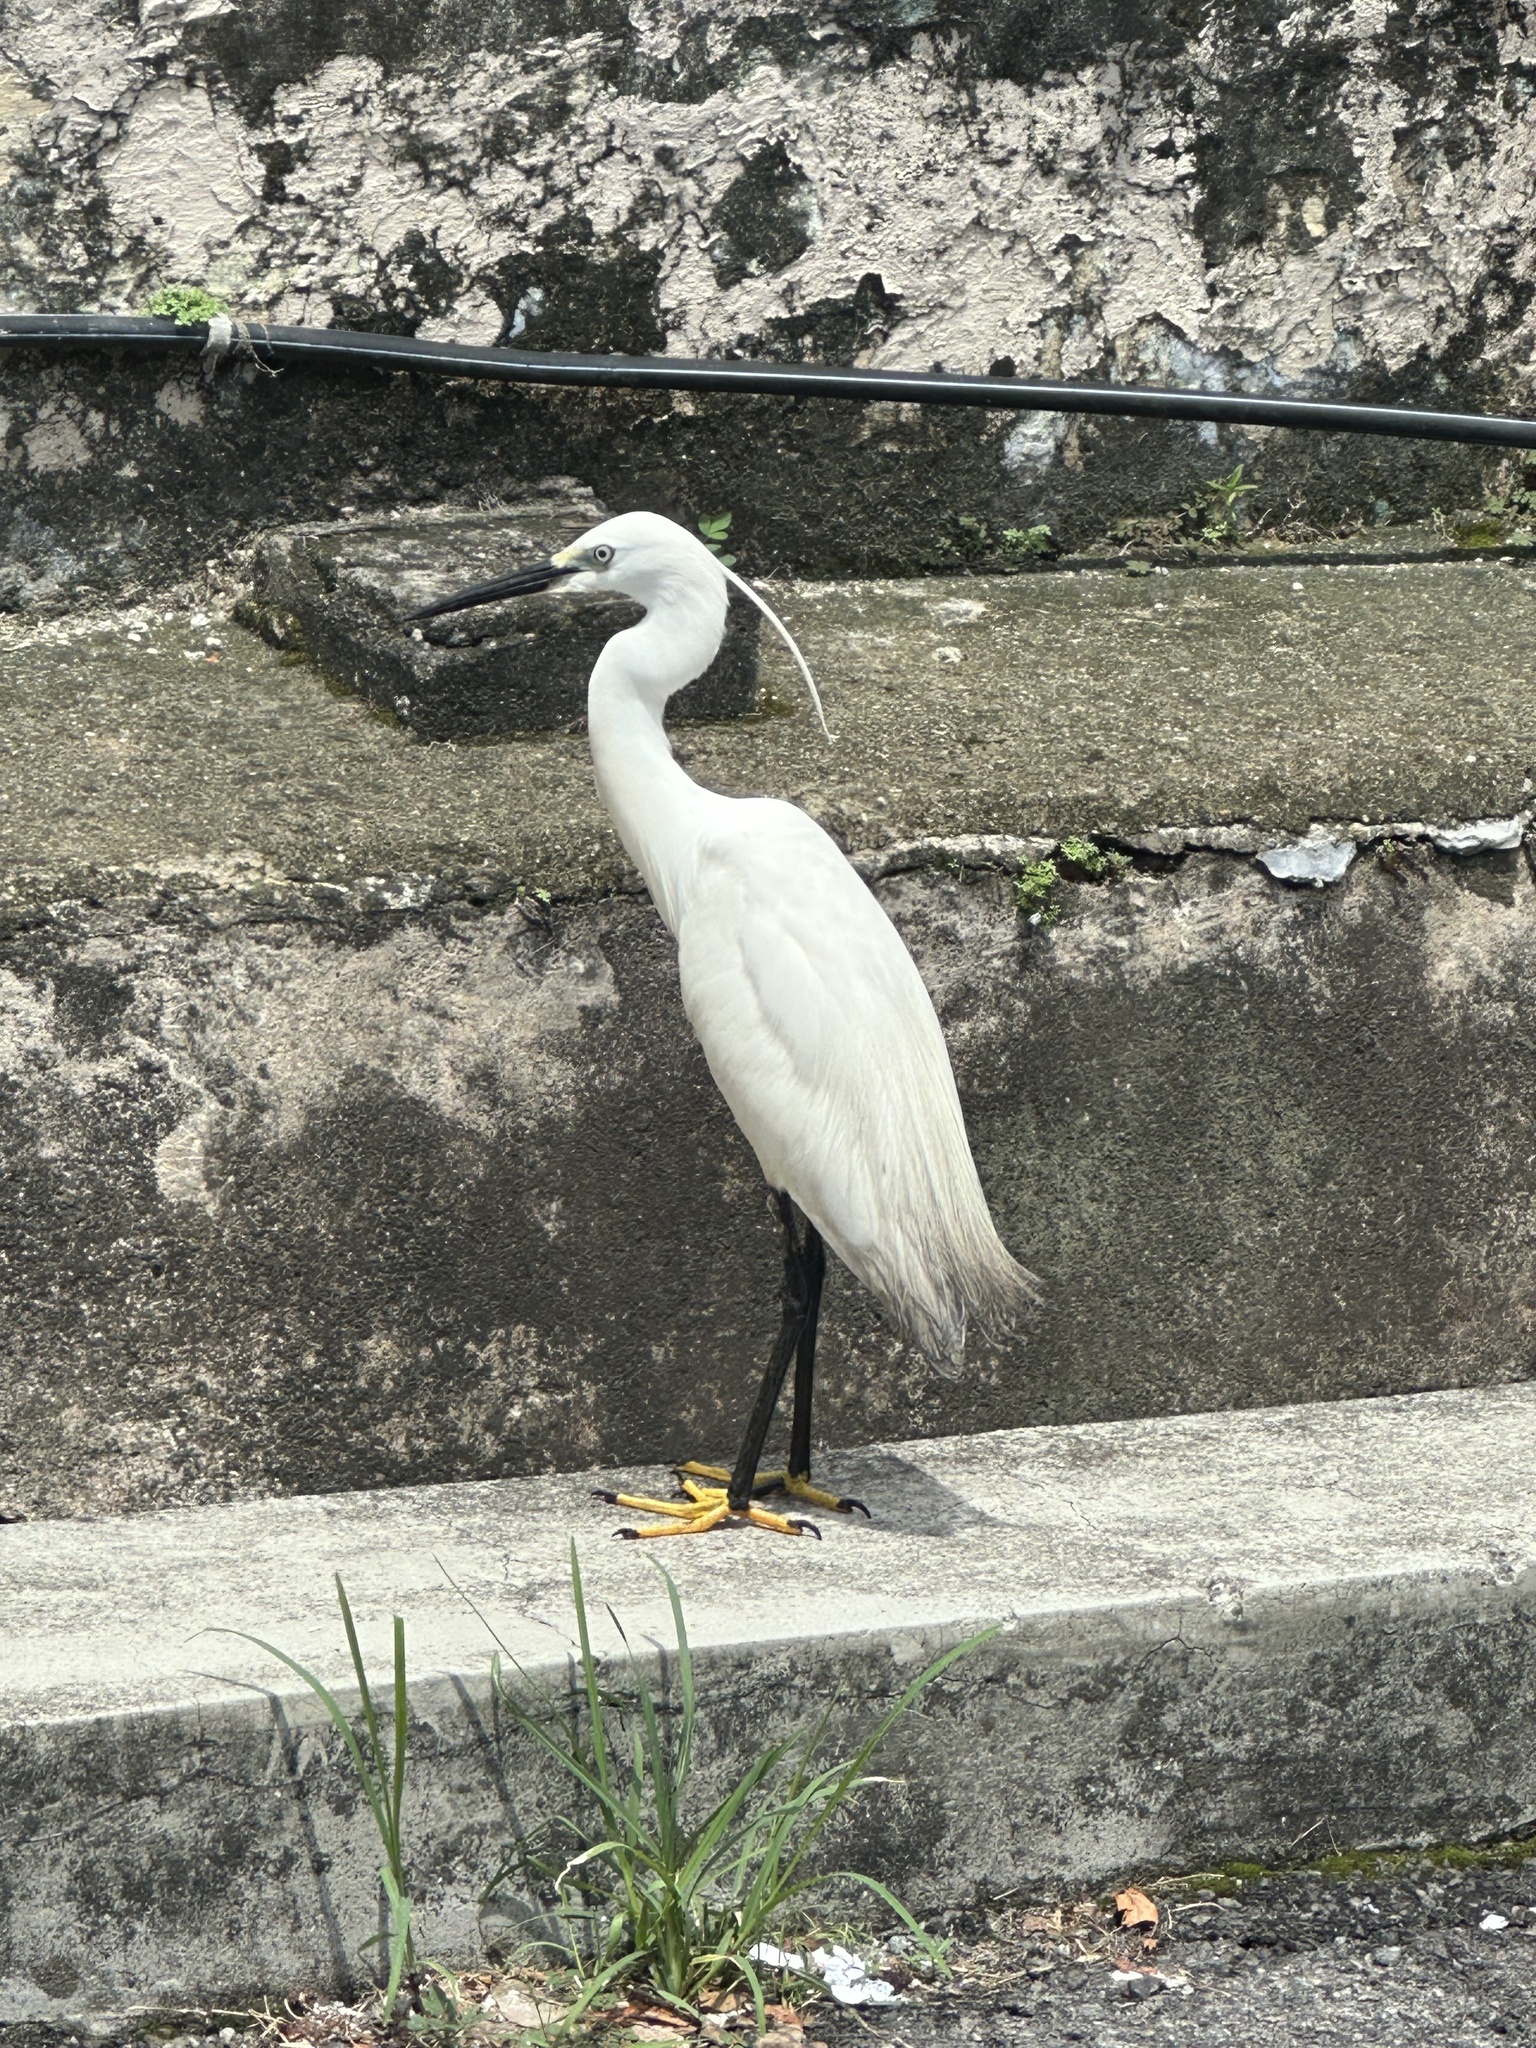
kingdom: Animalia
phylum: Chordata
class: Aves
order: Pelecaniformes
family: Ardeidae
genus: Egretta
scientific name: Egretta garzetta
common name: Little egret
